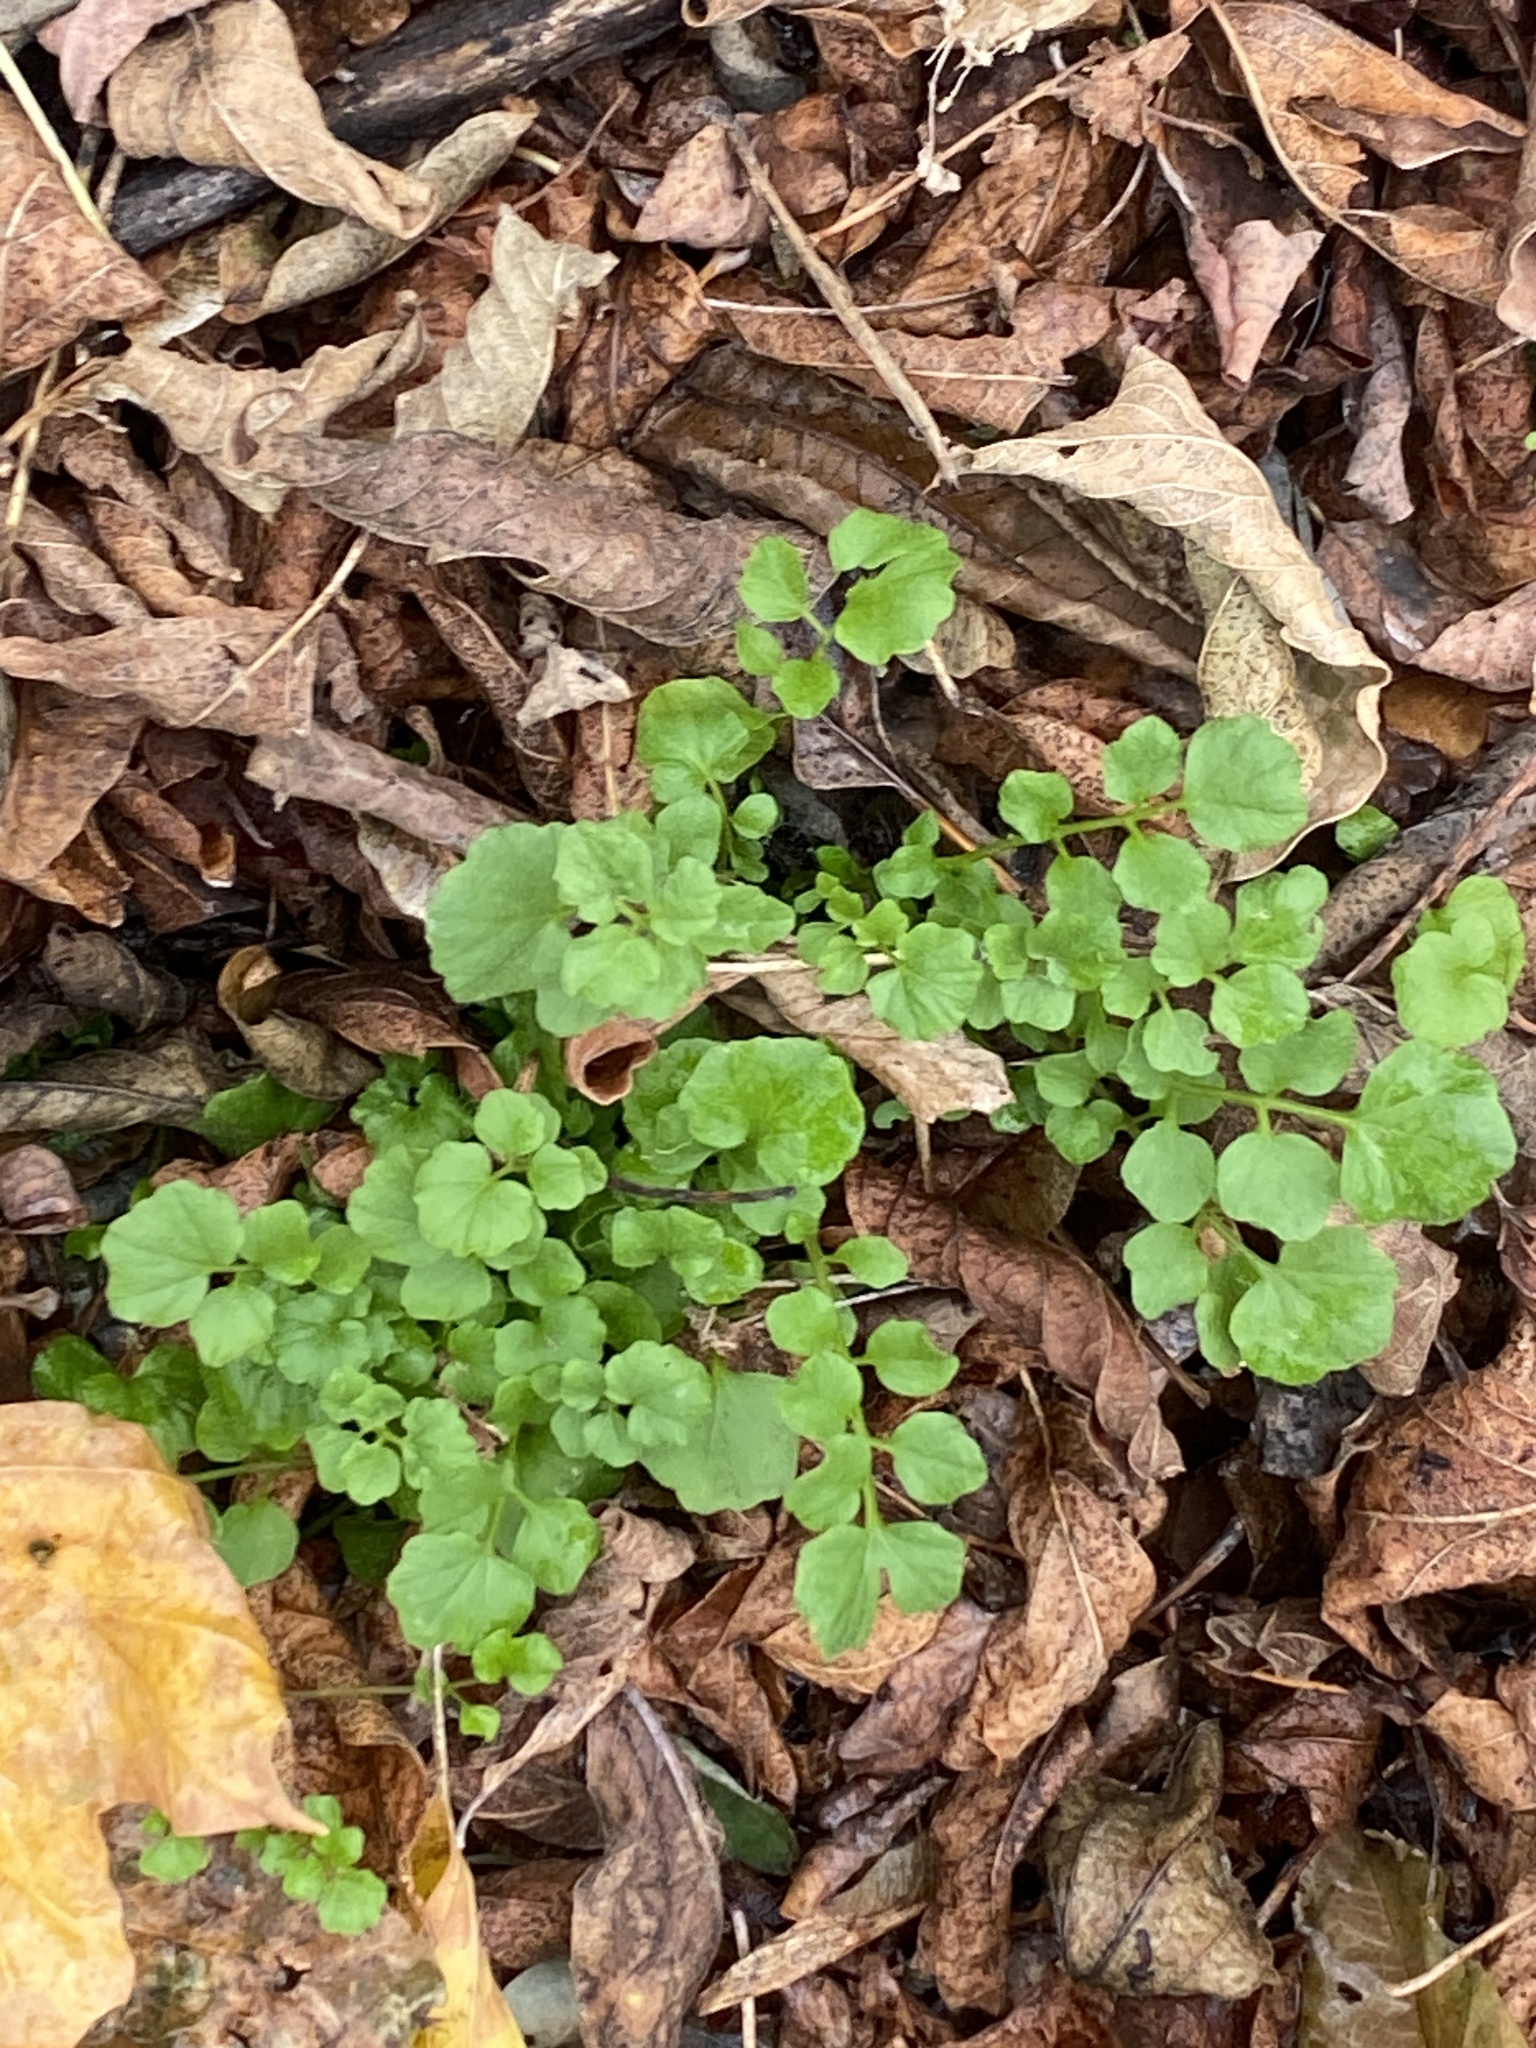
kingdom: Plantae
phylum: Tracheophyta
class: Magnoliopsida
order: Brassicales
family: Brassicaceae
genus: Cardamine
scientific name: Cardamine hirsuta
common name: Hairy bittercress
